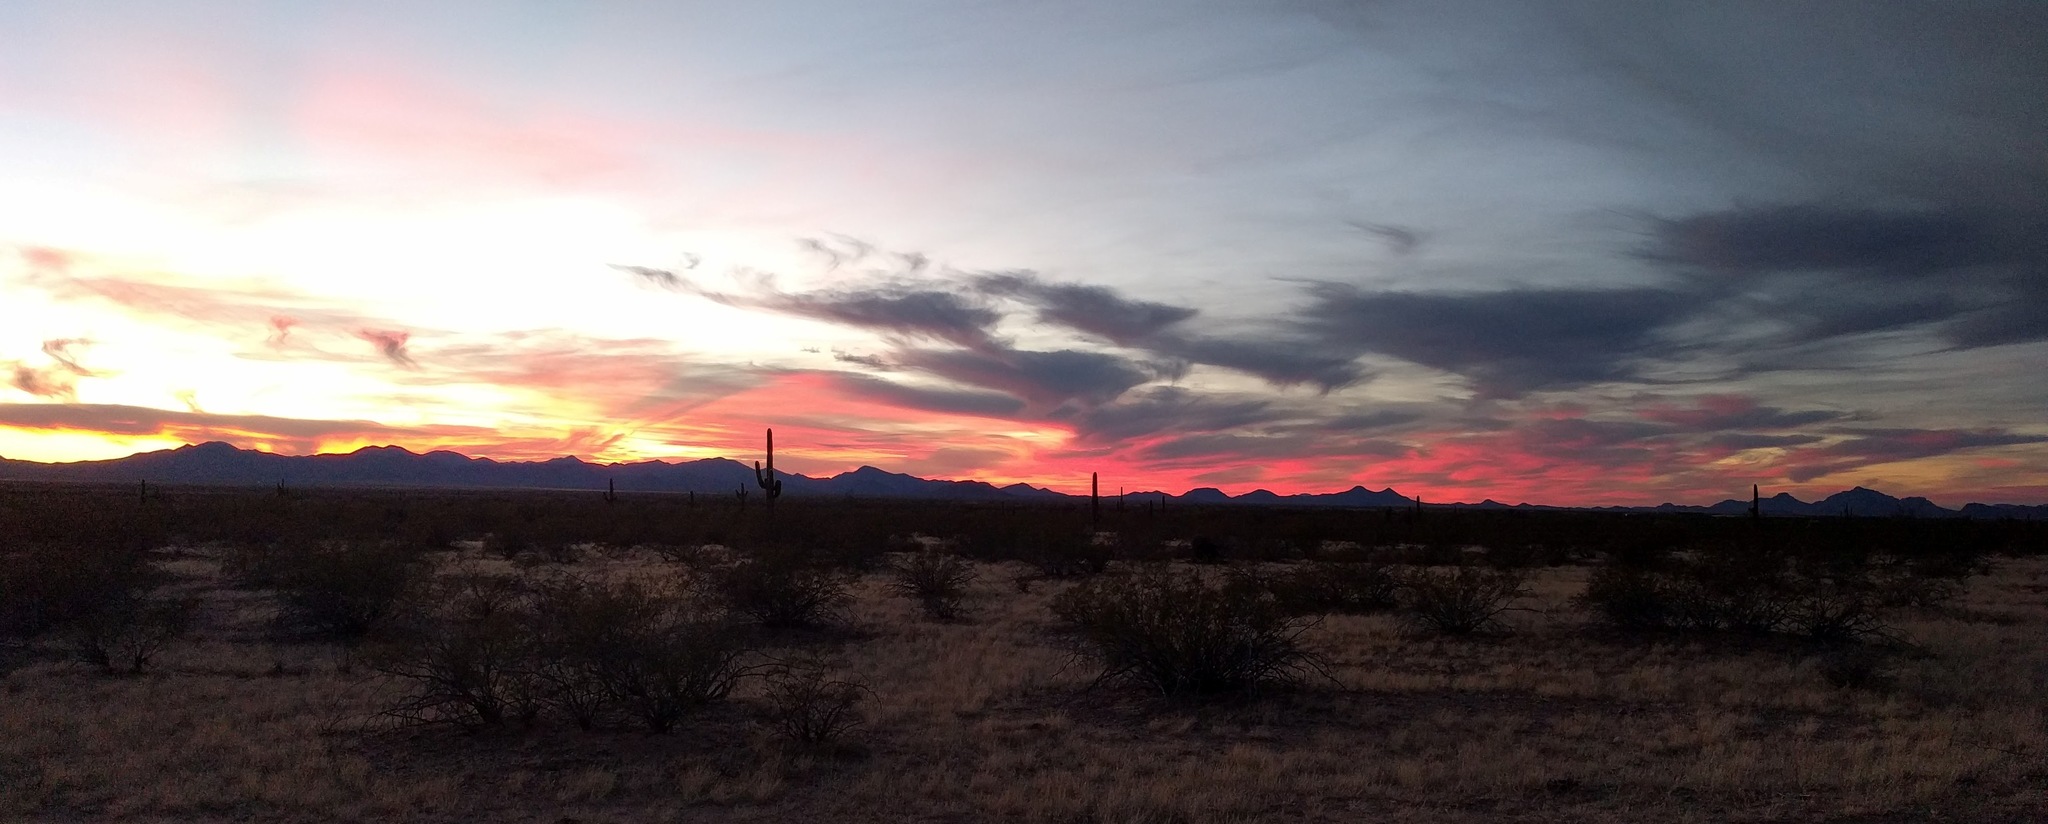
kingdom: Plantae
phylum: Tracheophyta
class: Magnoliopsida
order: Caryophyllales
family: Cactaceae
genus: Carnegiea
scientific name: Carnegiea gigantea
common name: Saguaro
